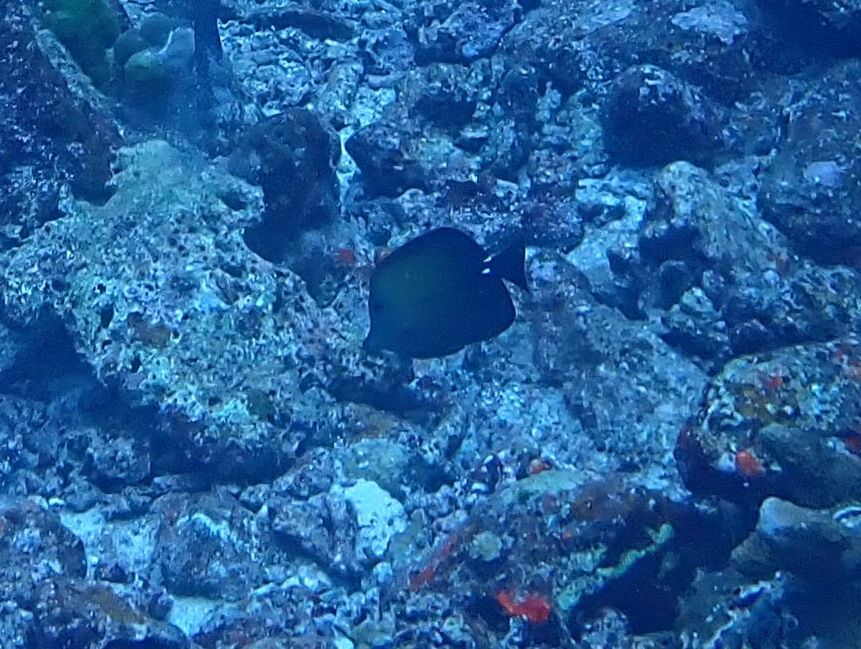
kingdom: Animalia
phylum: Chordata
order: Perciformes
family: Acanthuridae
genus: Zebrasoma
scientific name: Zebrasoma scopas
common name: Twotone tang
